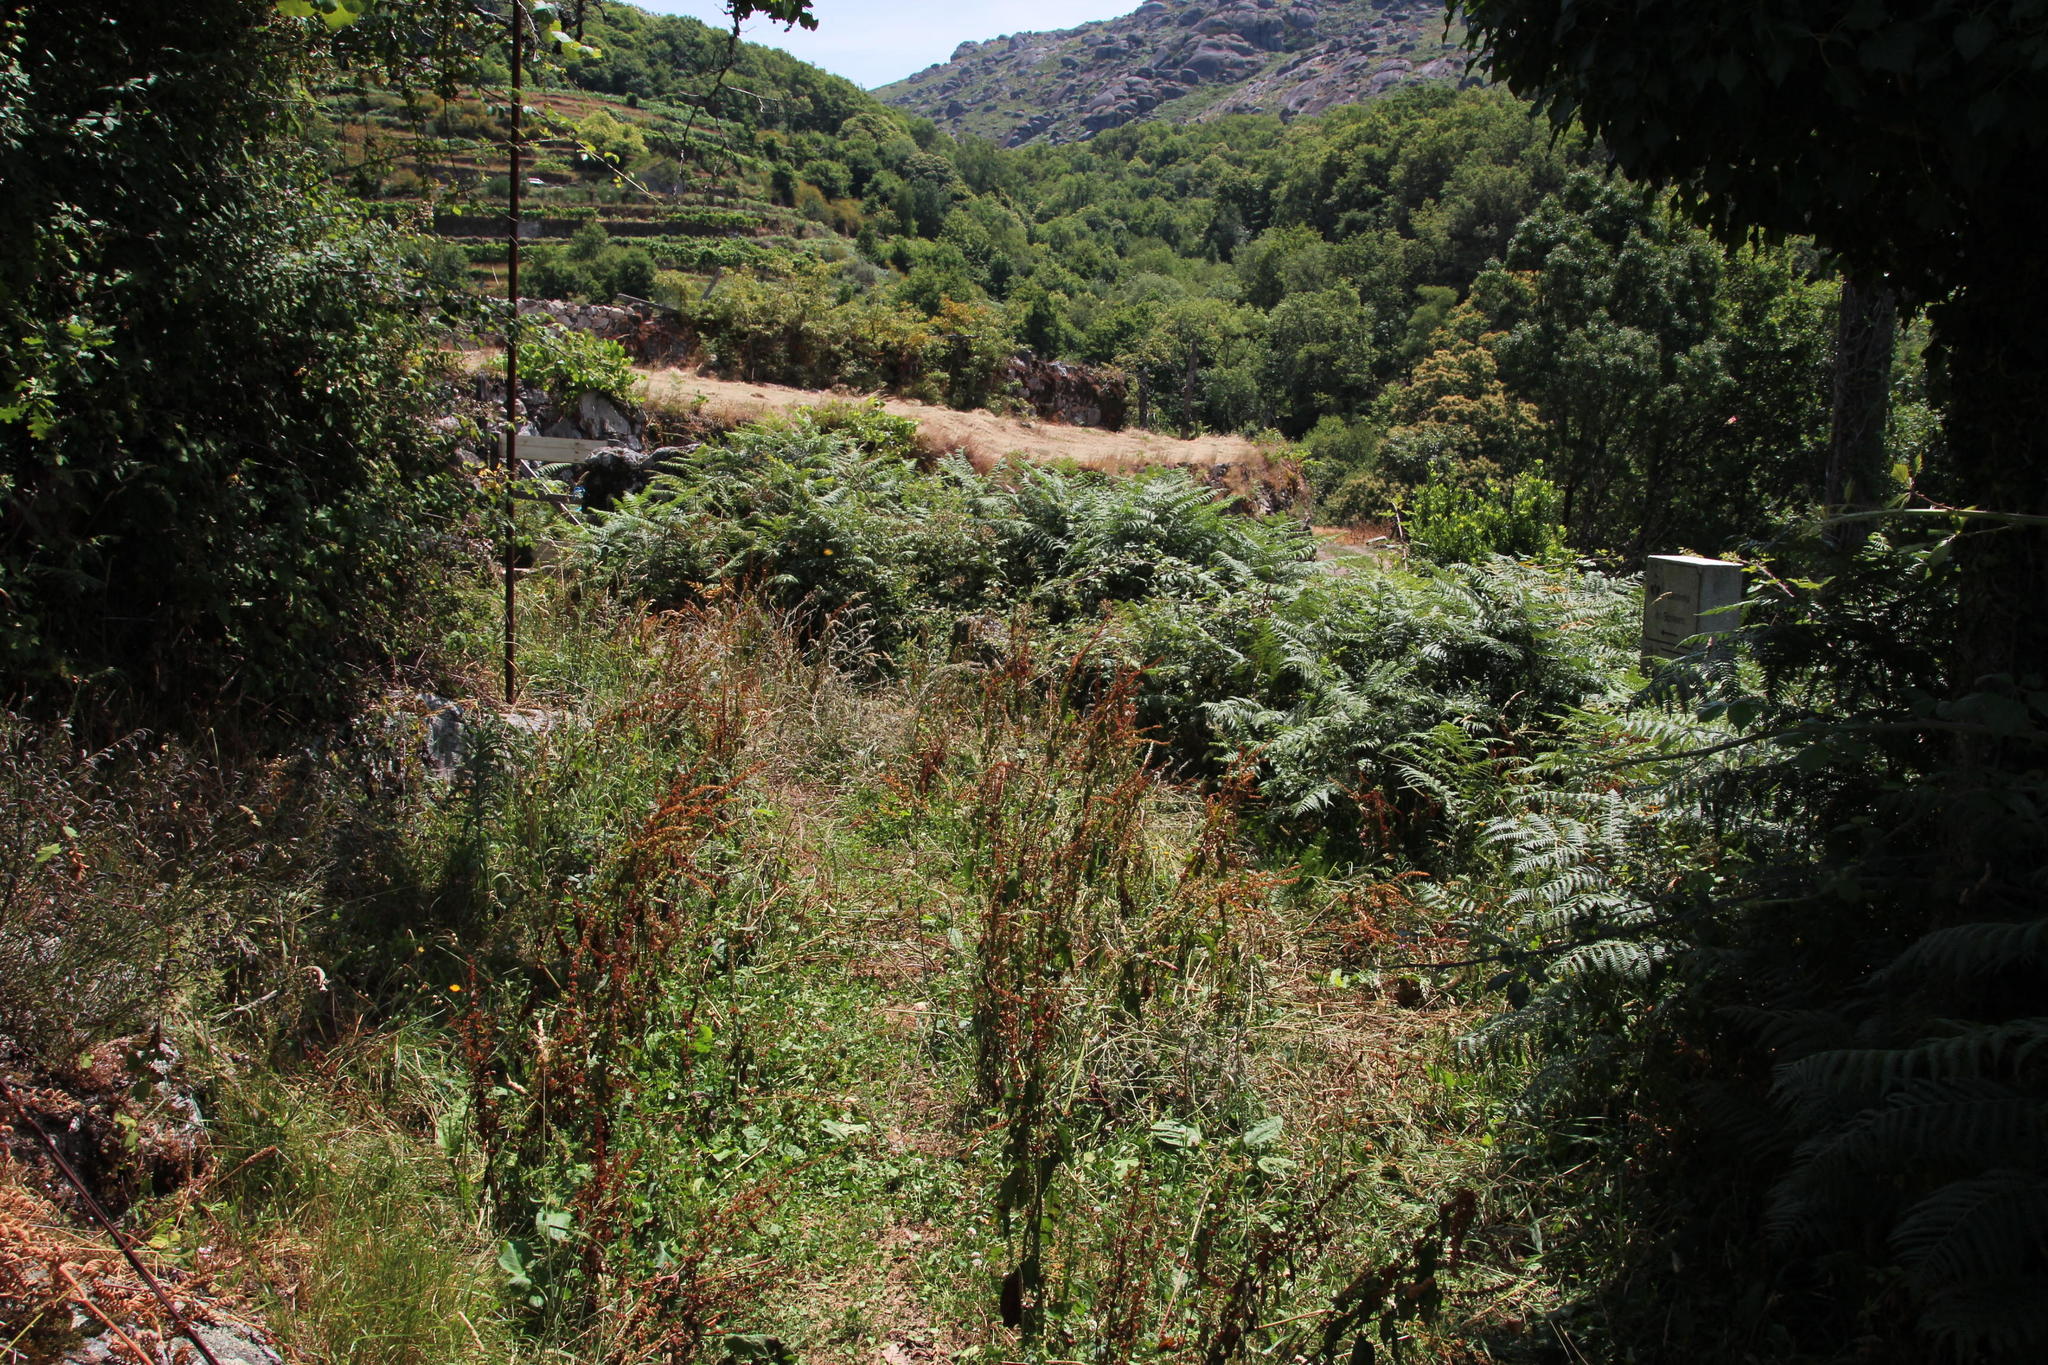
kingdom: Plantae
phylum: Tracheophyta
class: Magnoliopsida
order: Caryophyllales
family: Polygonaceae
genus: Rumex
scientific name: Rumex obtusifolius
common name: Bitter dock
